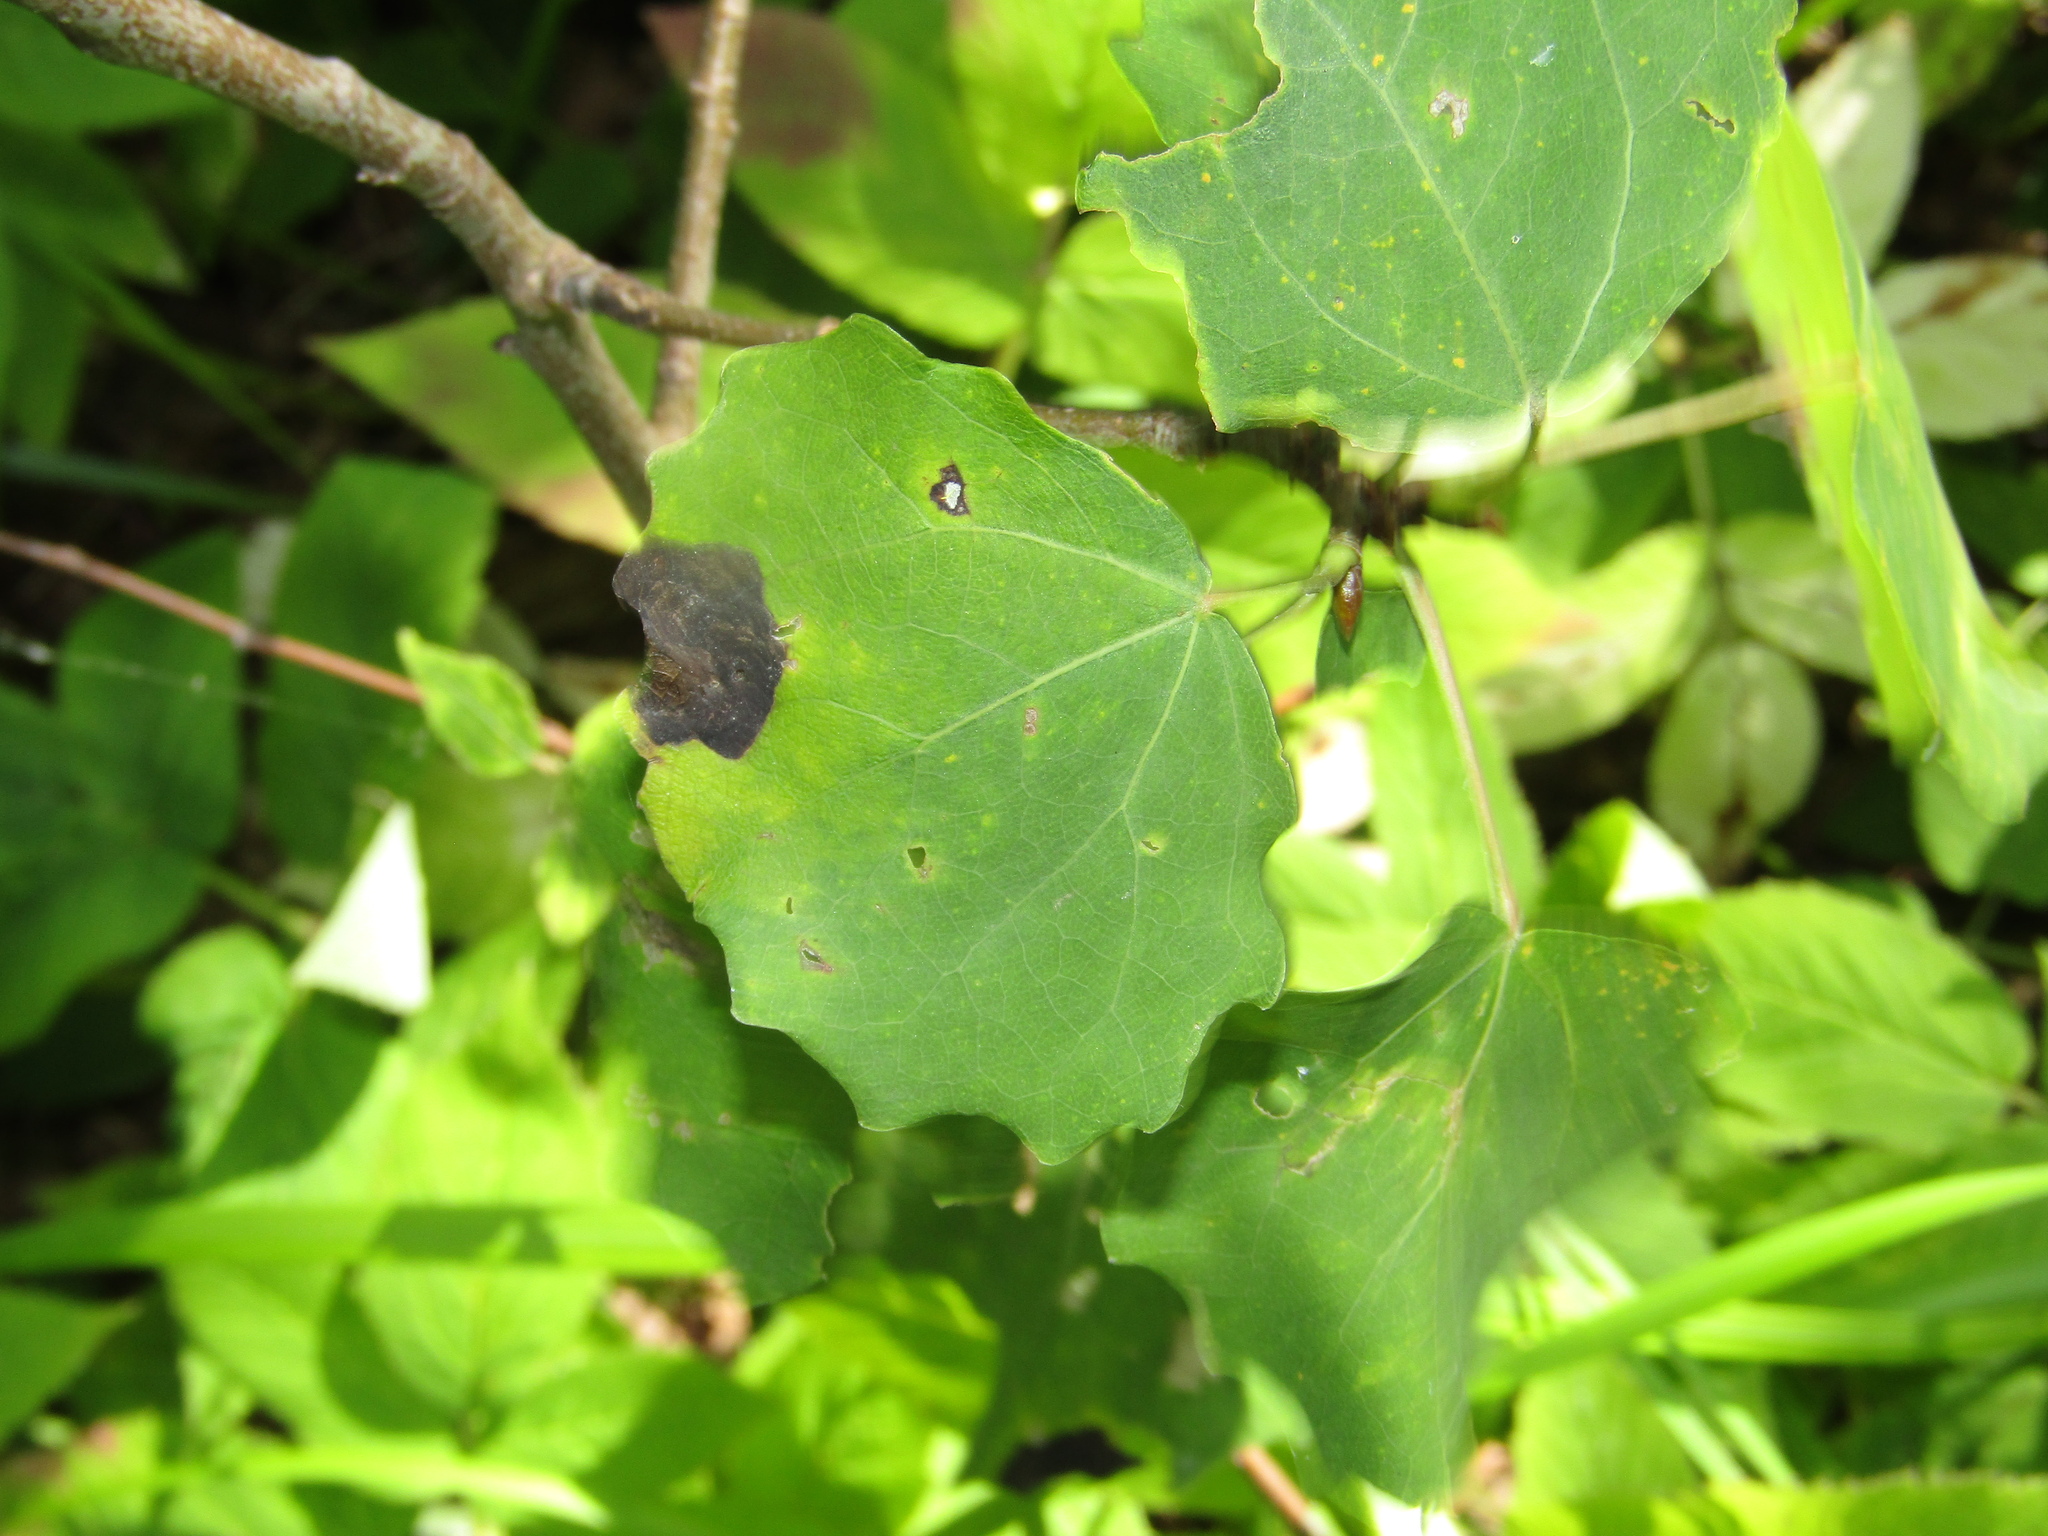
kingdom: Plantae
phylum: Tracheophyta
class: Magnoliopsida
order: Malpighiales
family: Salicaceae
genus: Populus
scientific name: Populus tremula
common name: European aspen
